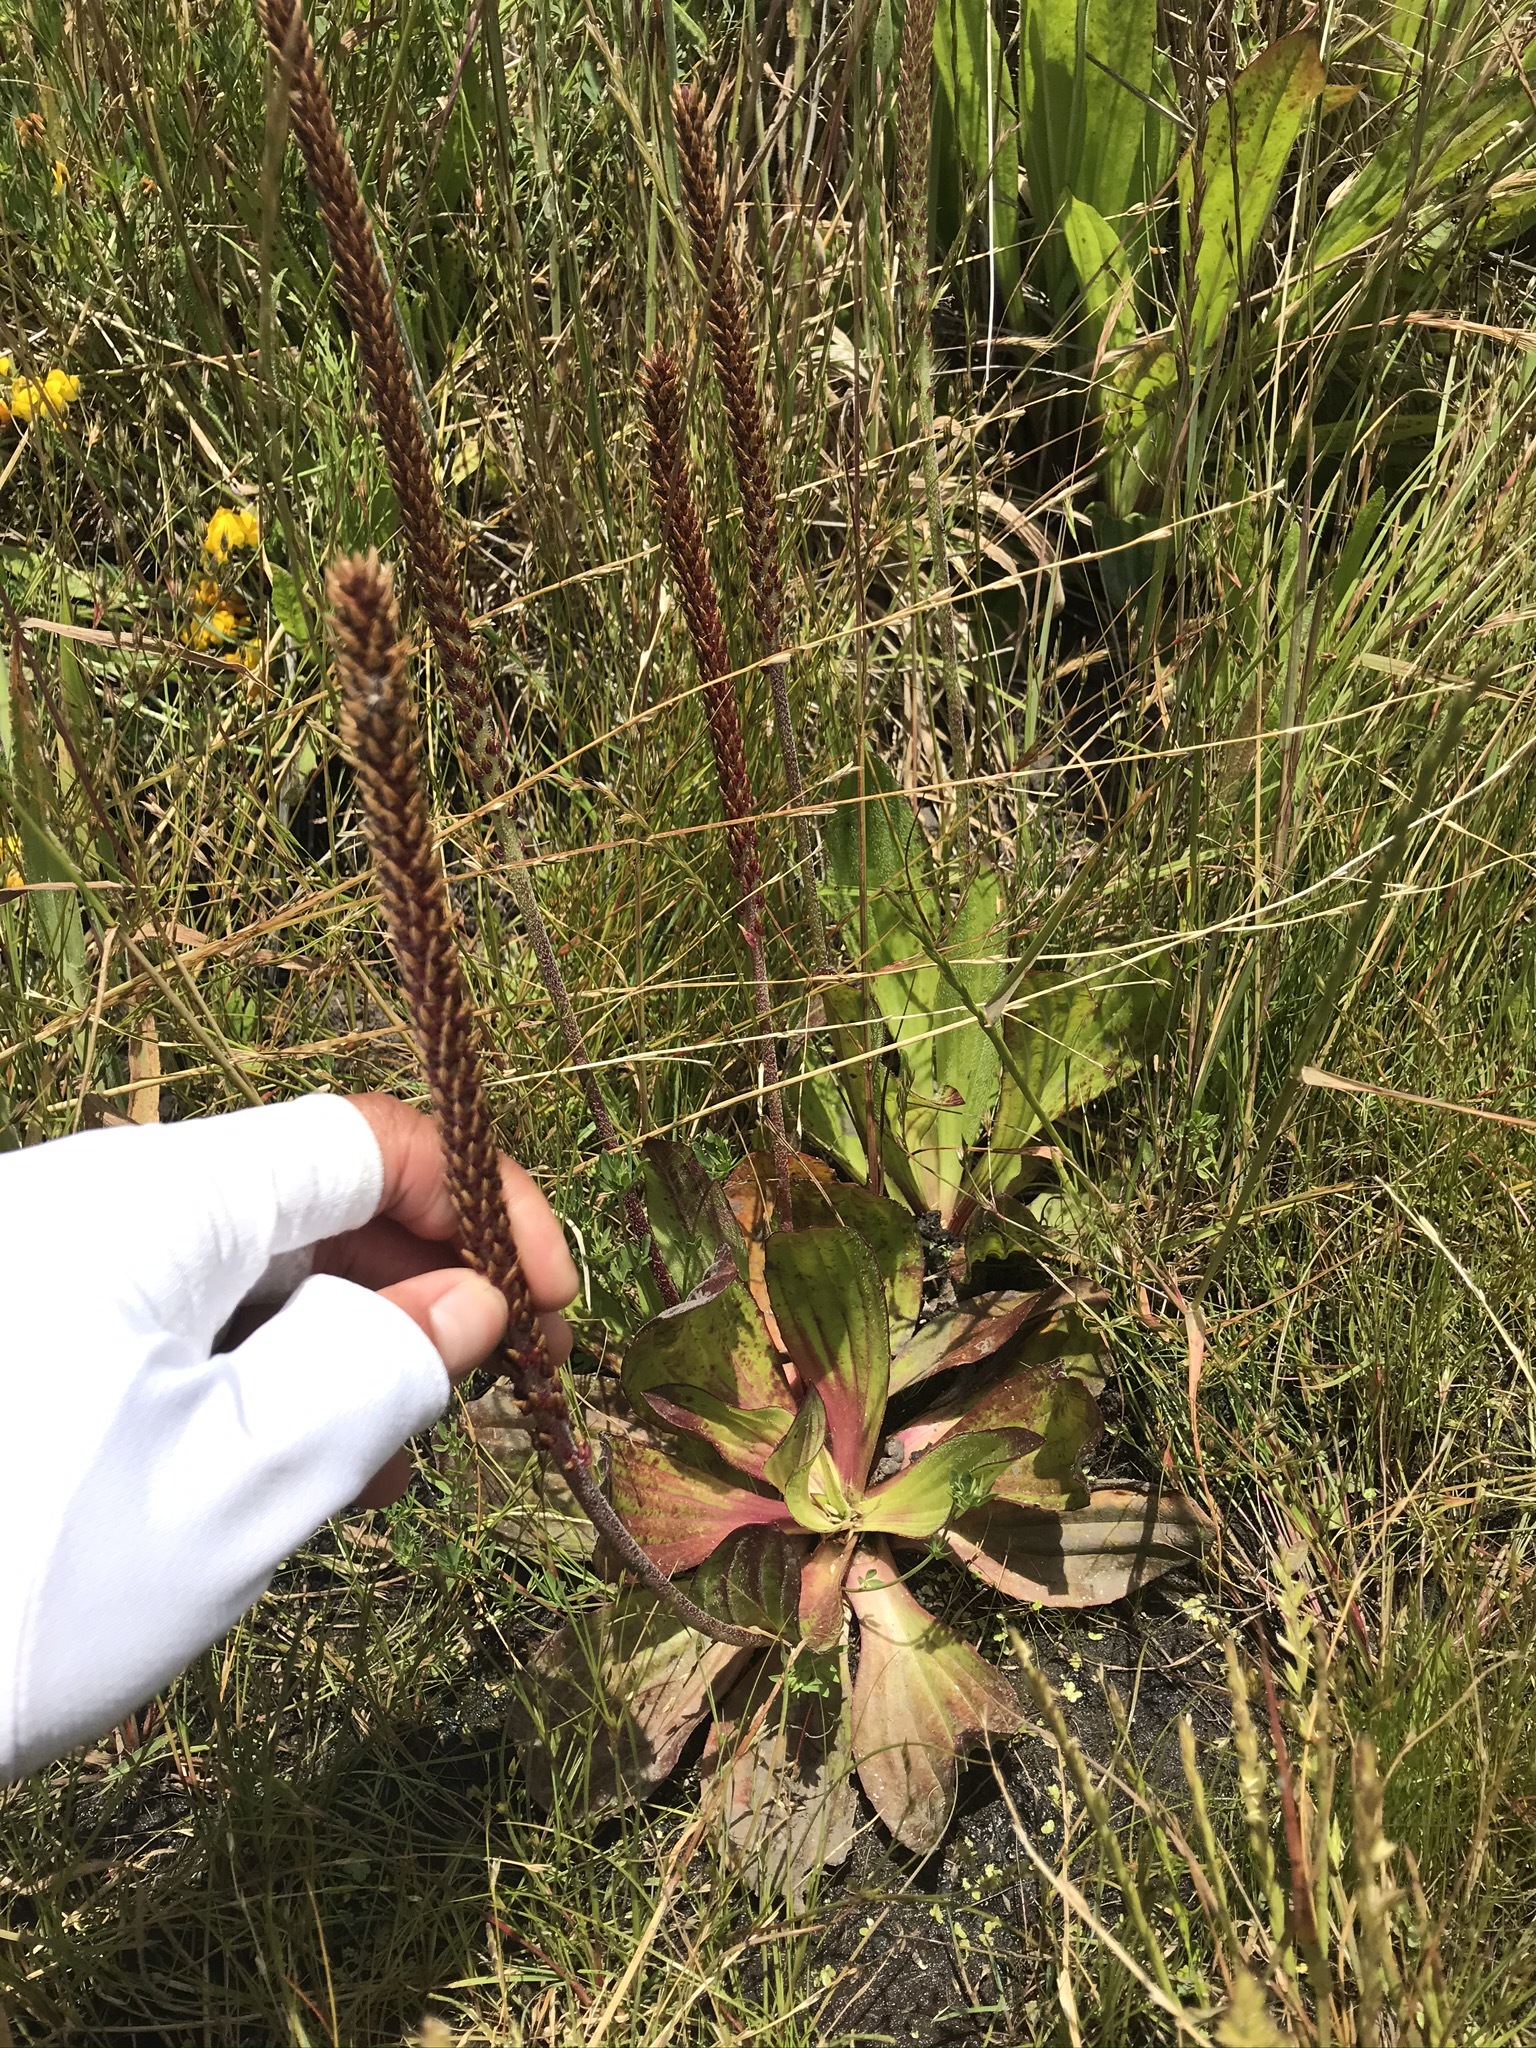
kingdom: Plantae
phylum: Tracheophyta
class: Magnoliopsida
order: Lamiales
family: Plantaginaceae
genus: Plantago
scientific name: Plantago subnuda
